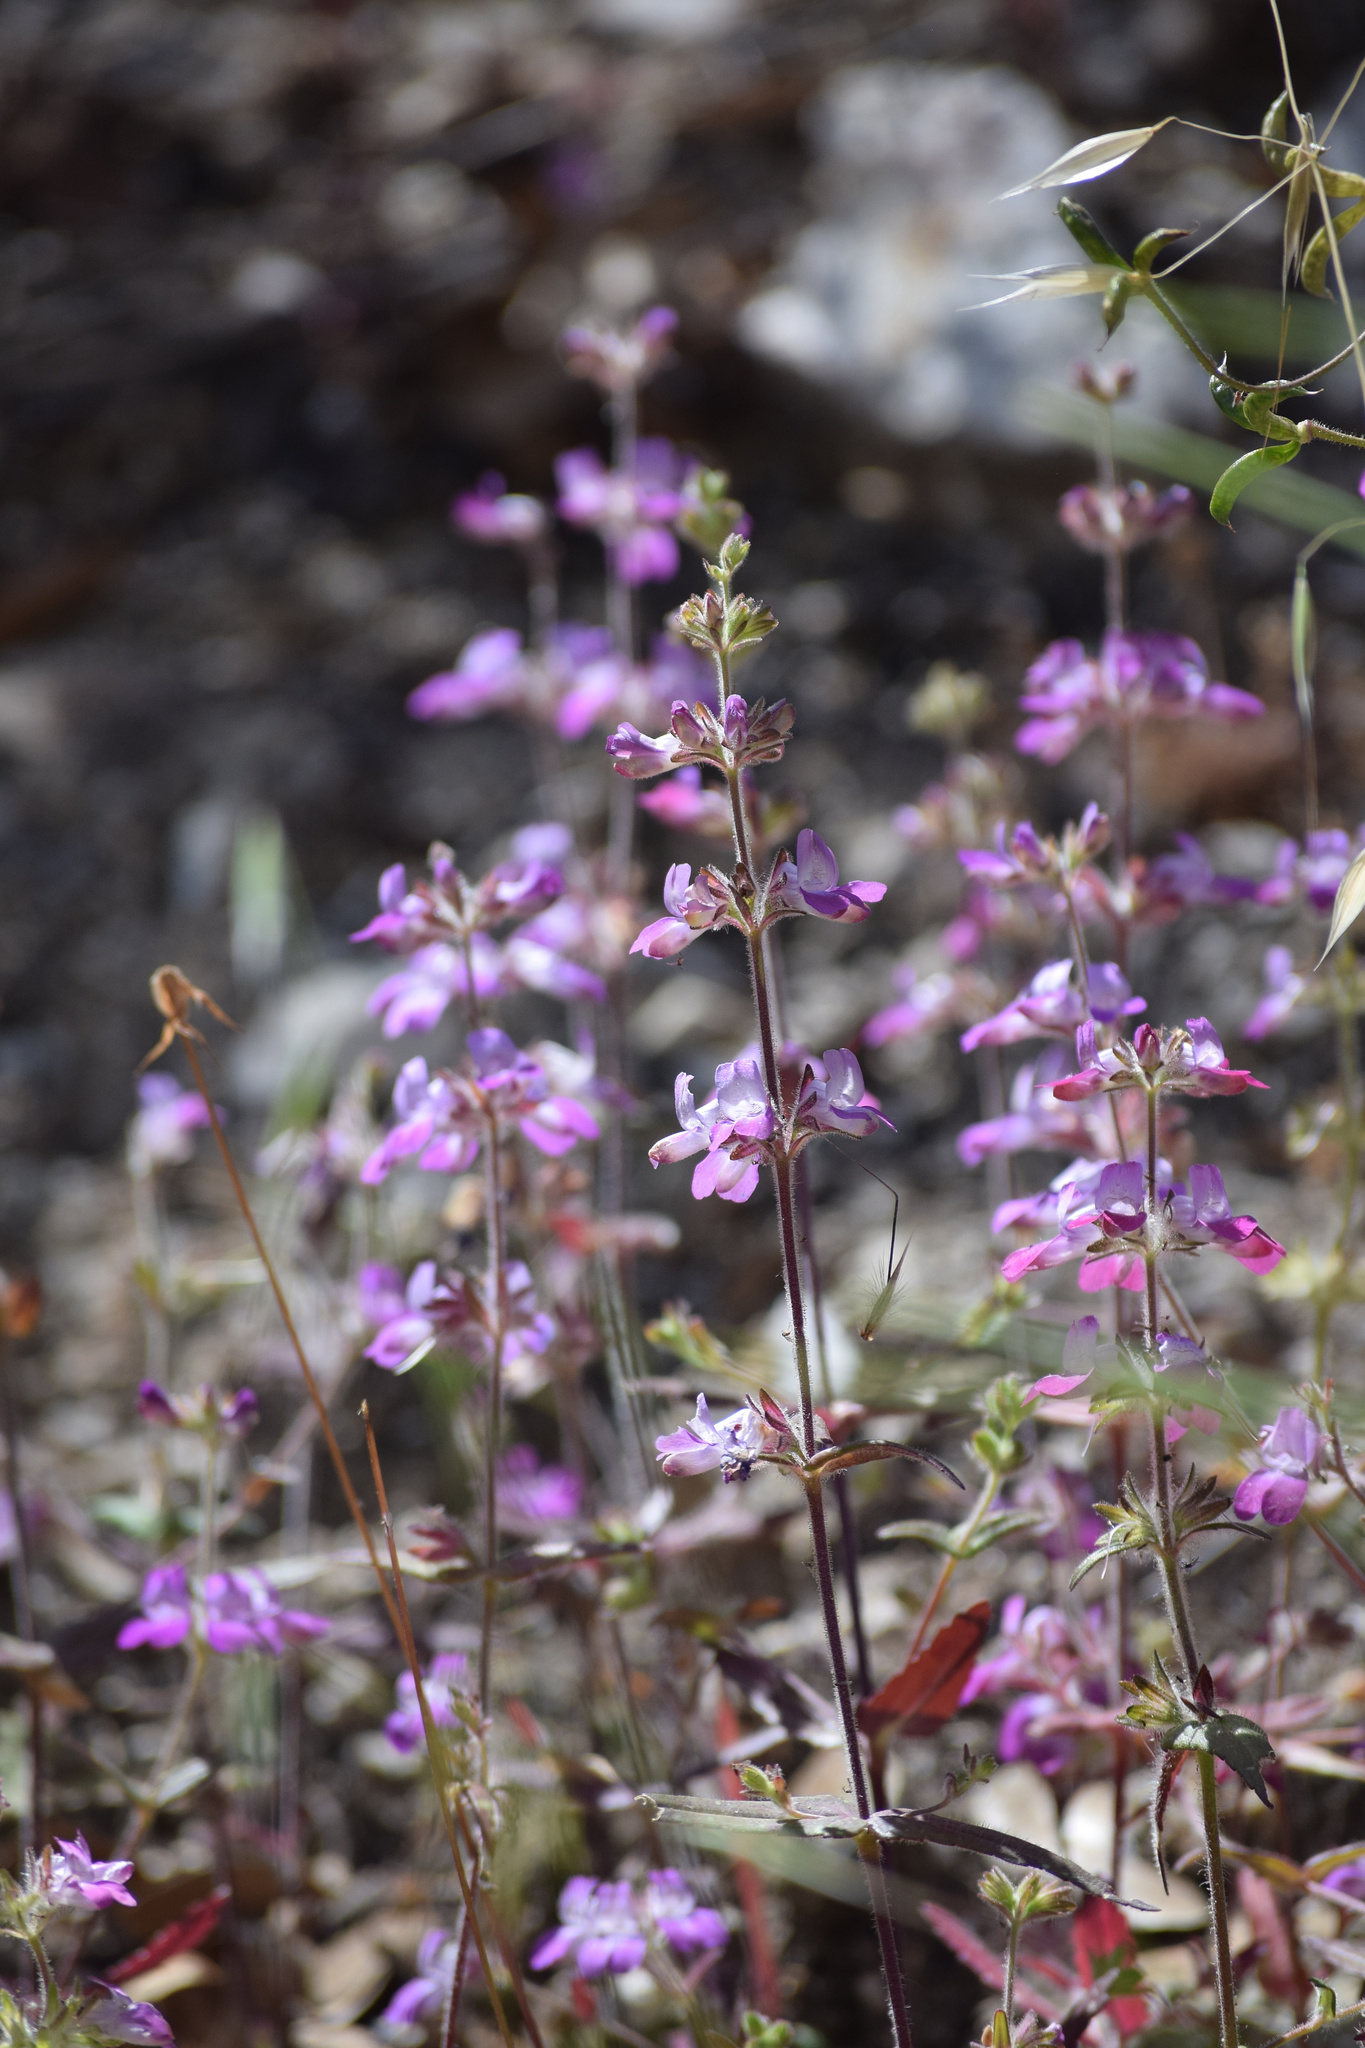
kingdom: Plantae
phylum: Tracheophyta
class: Magnoliopsida
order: Lamiales
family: Plantaginaceae
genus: Collinsia
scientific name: Collinsia heterophylla
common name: Chinese-houses
